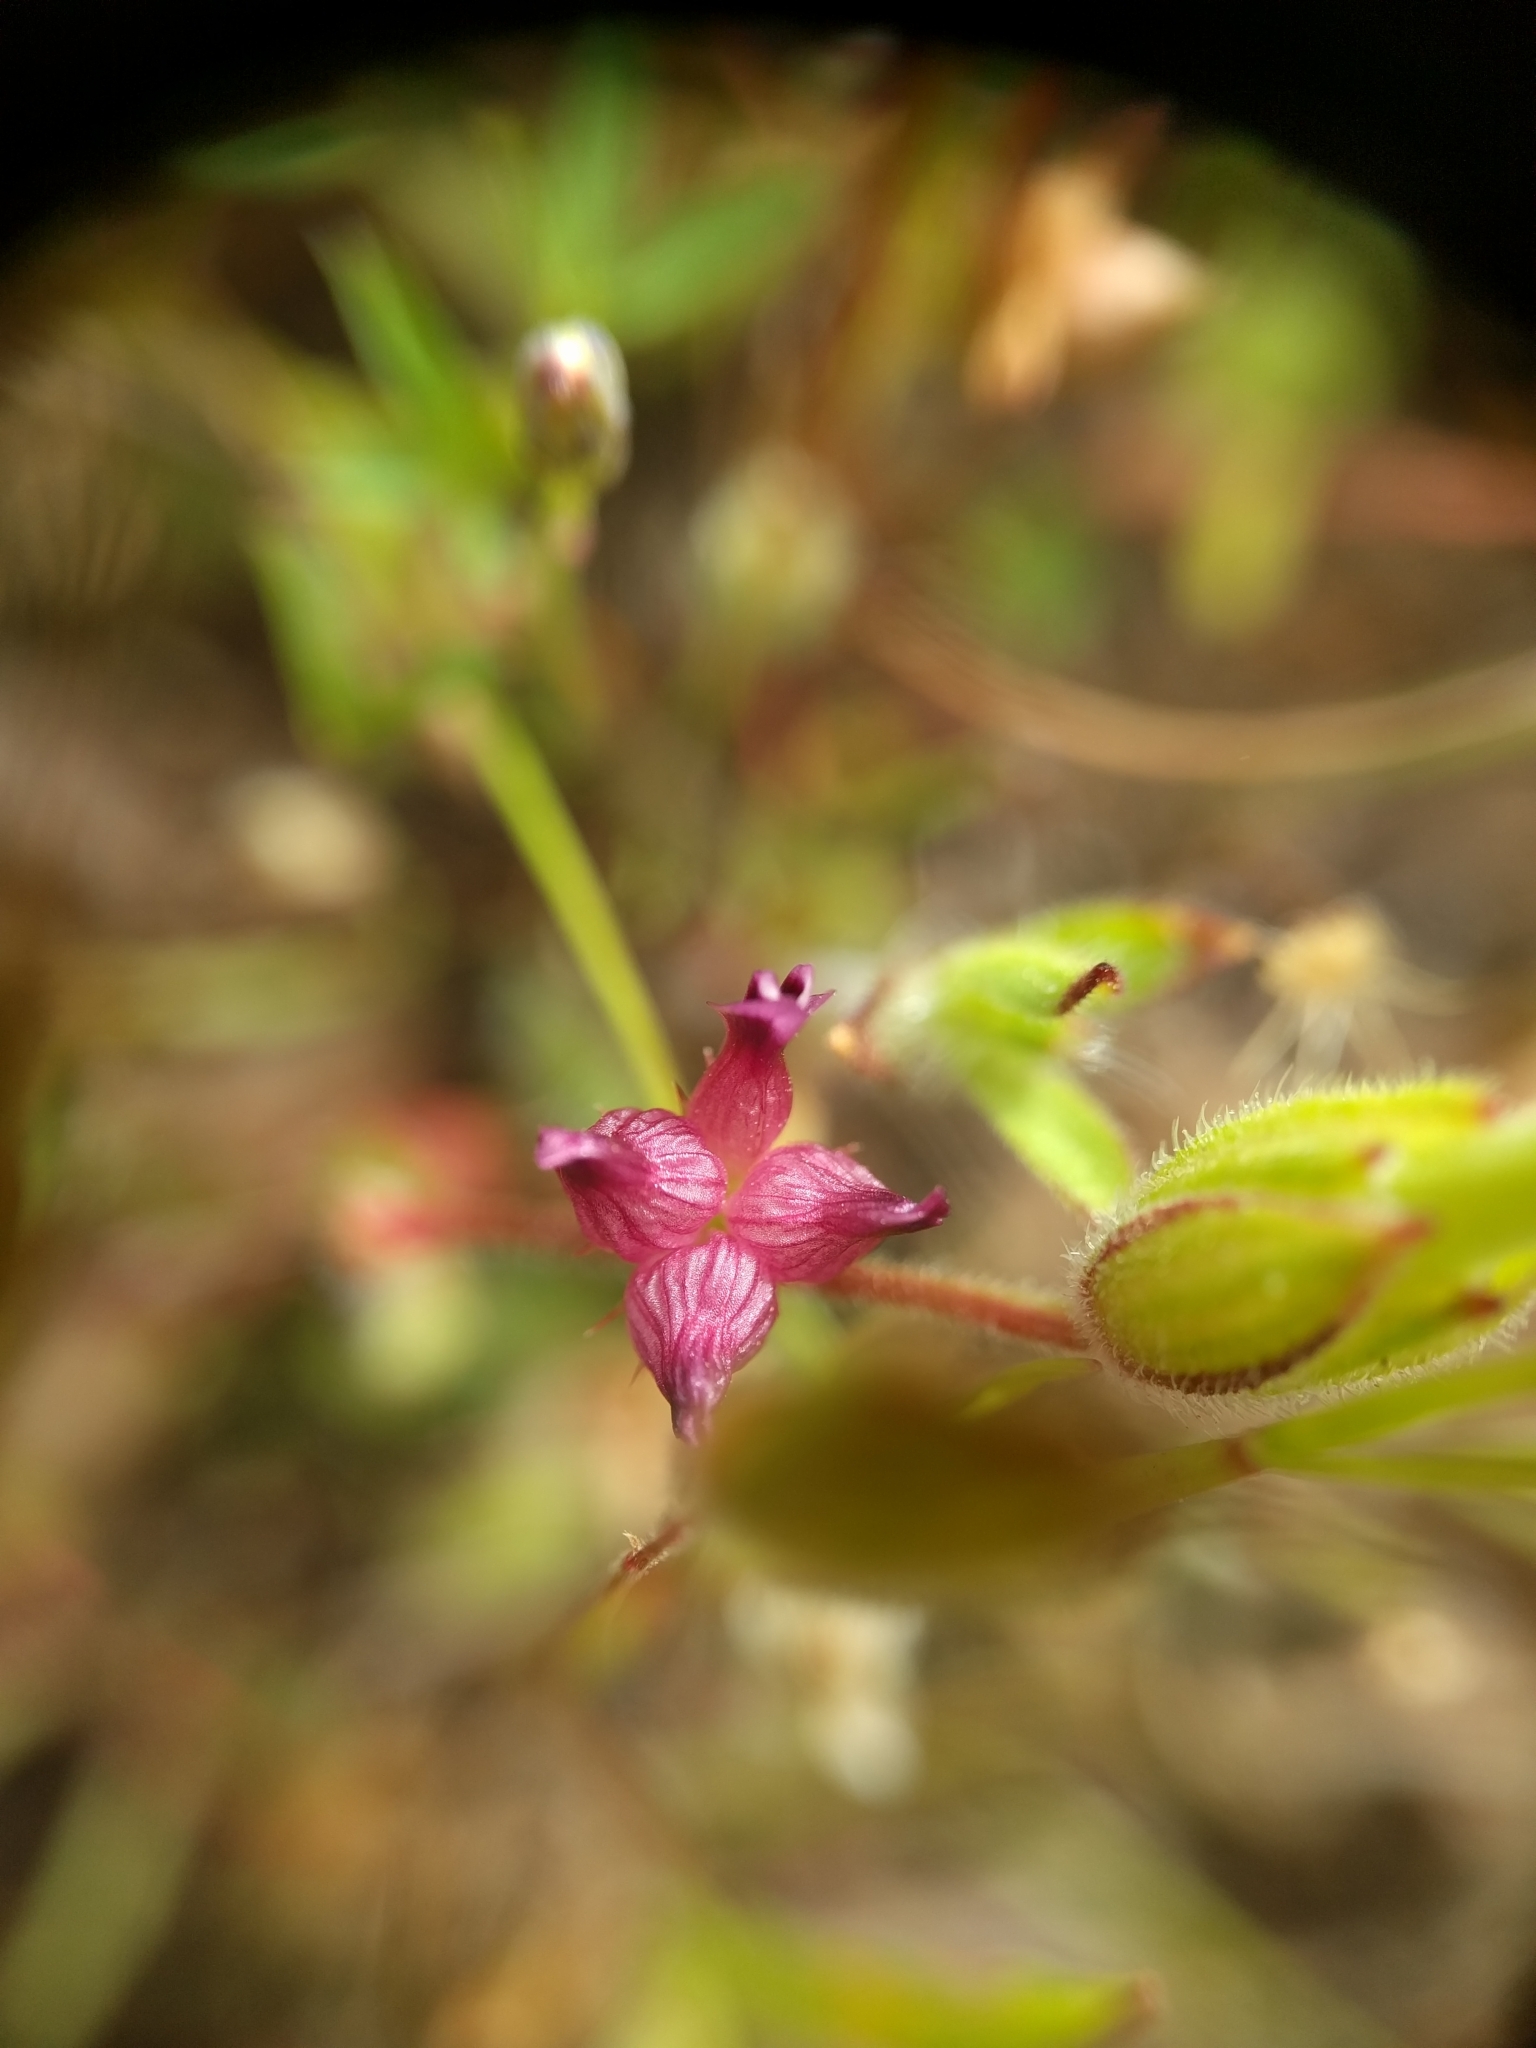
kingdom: Plantae
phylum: Tracheophyta
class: Magnoliopsida
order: Fabales
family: Fabaceae
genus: Trifolium
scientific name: Trifolium depauperatum
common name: Poverty clover
